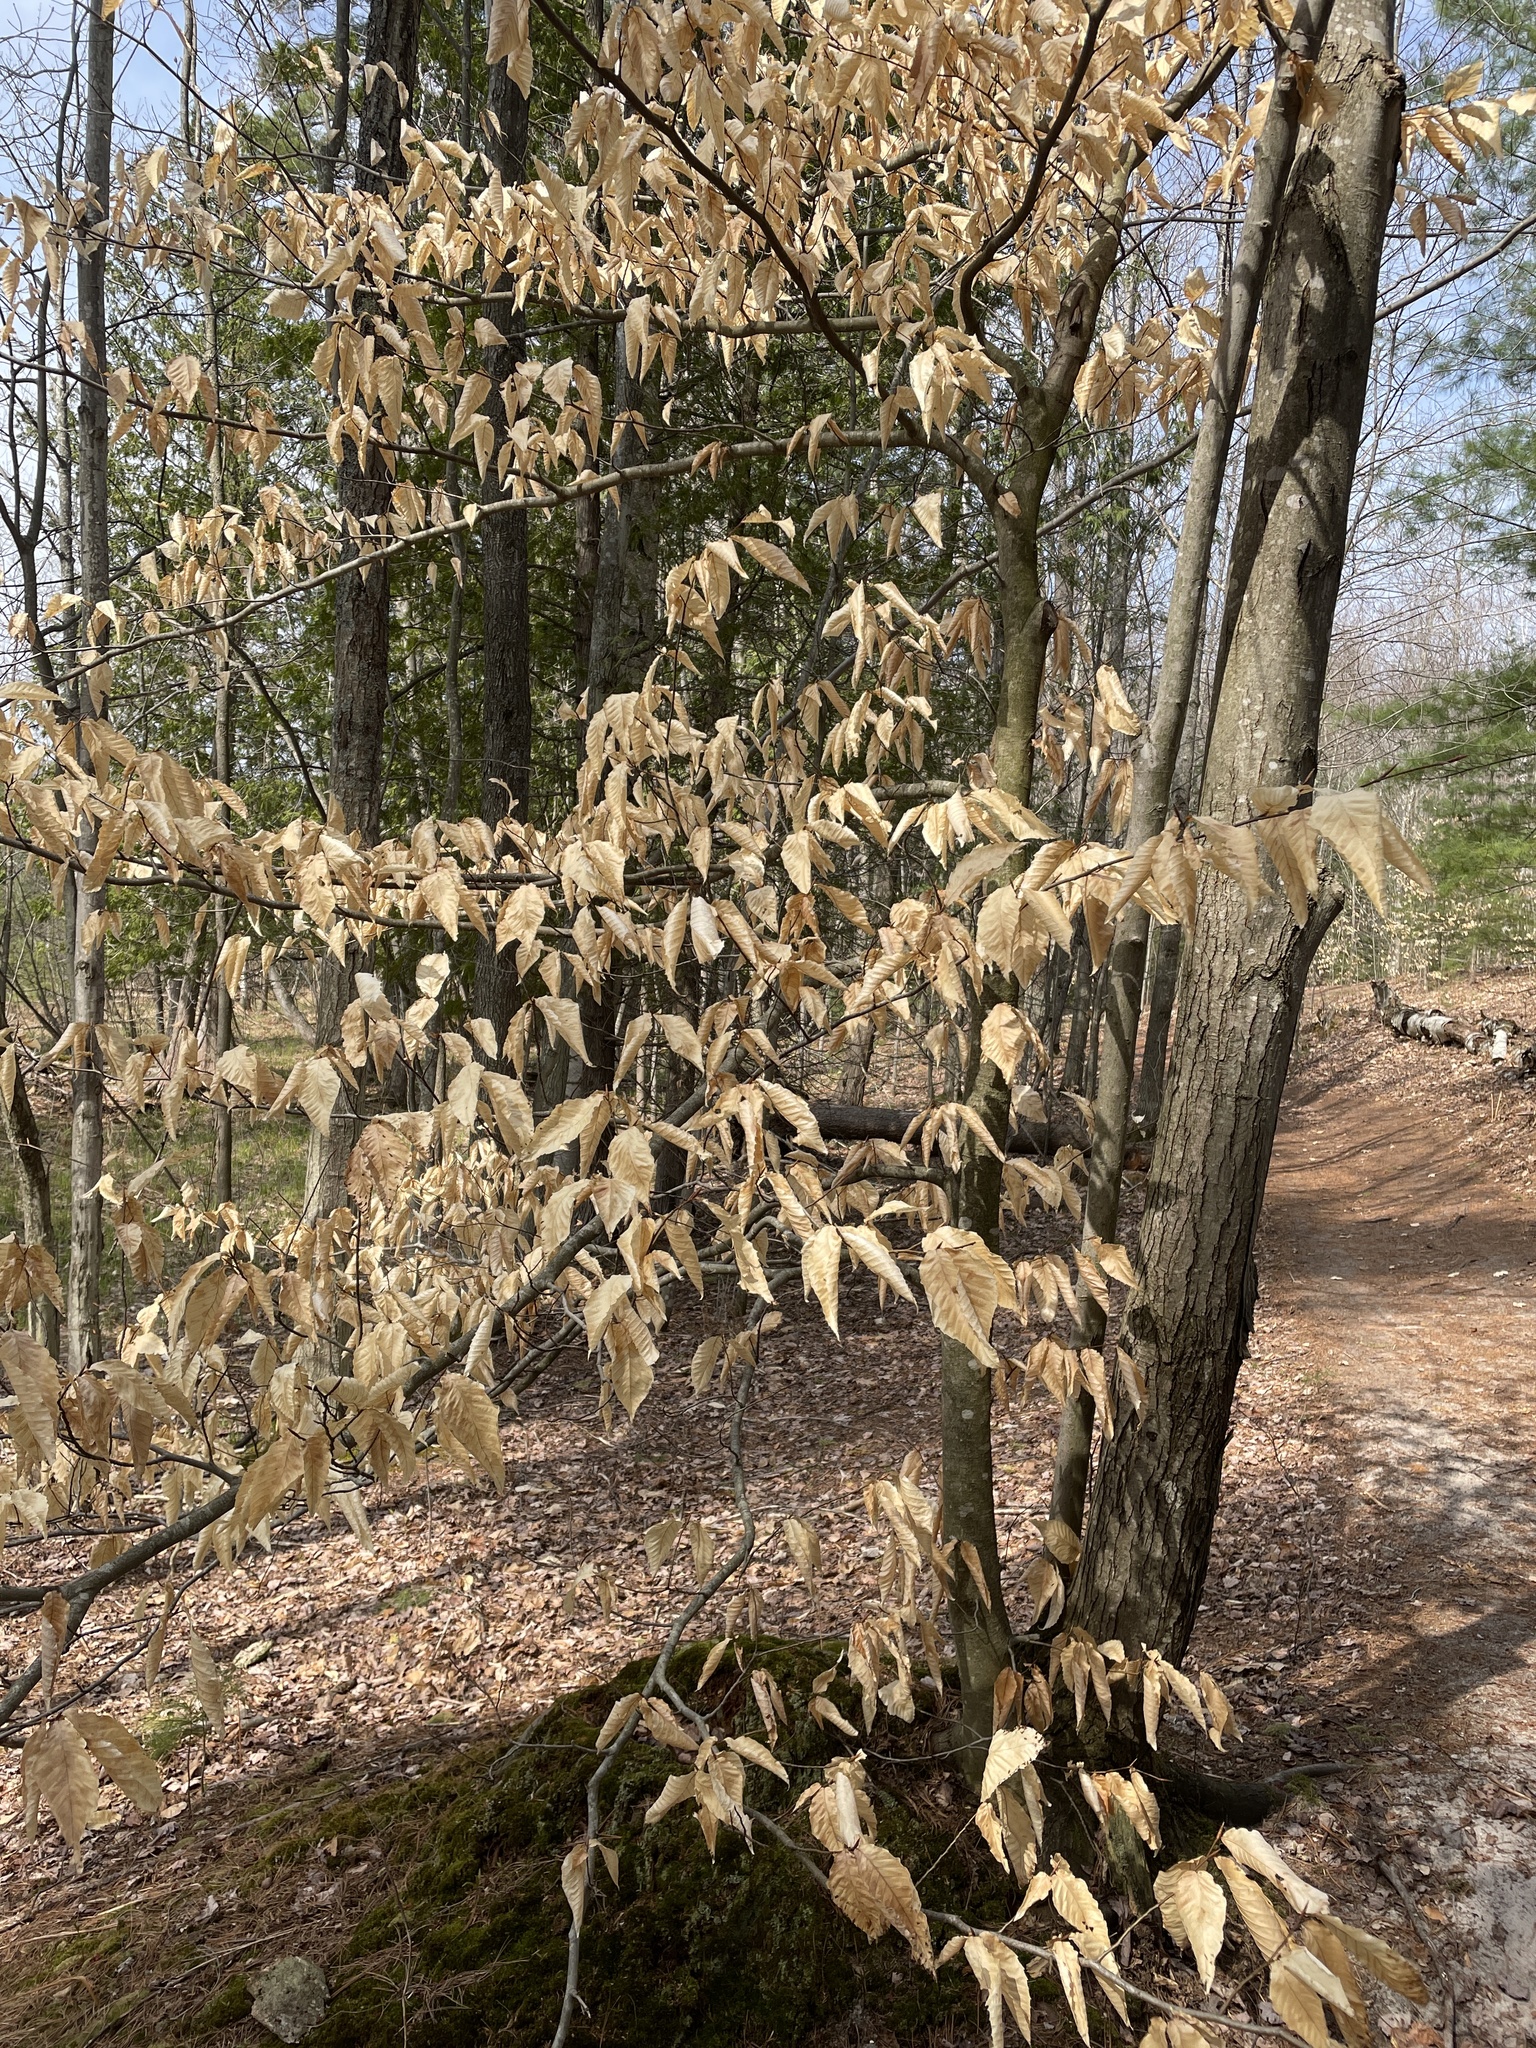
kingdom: Plantae
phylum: Tracheophyta
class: Magnoliopsida
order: Fagales
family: Fagaceae
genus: Fagus
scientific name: Fagus grandifolia
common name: American beech
